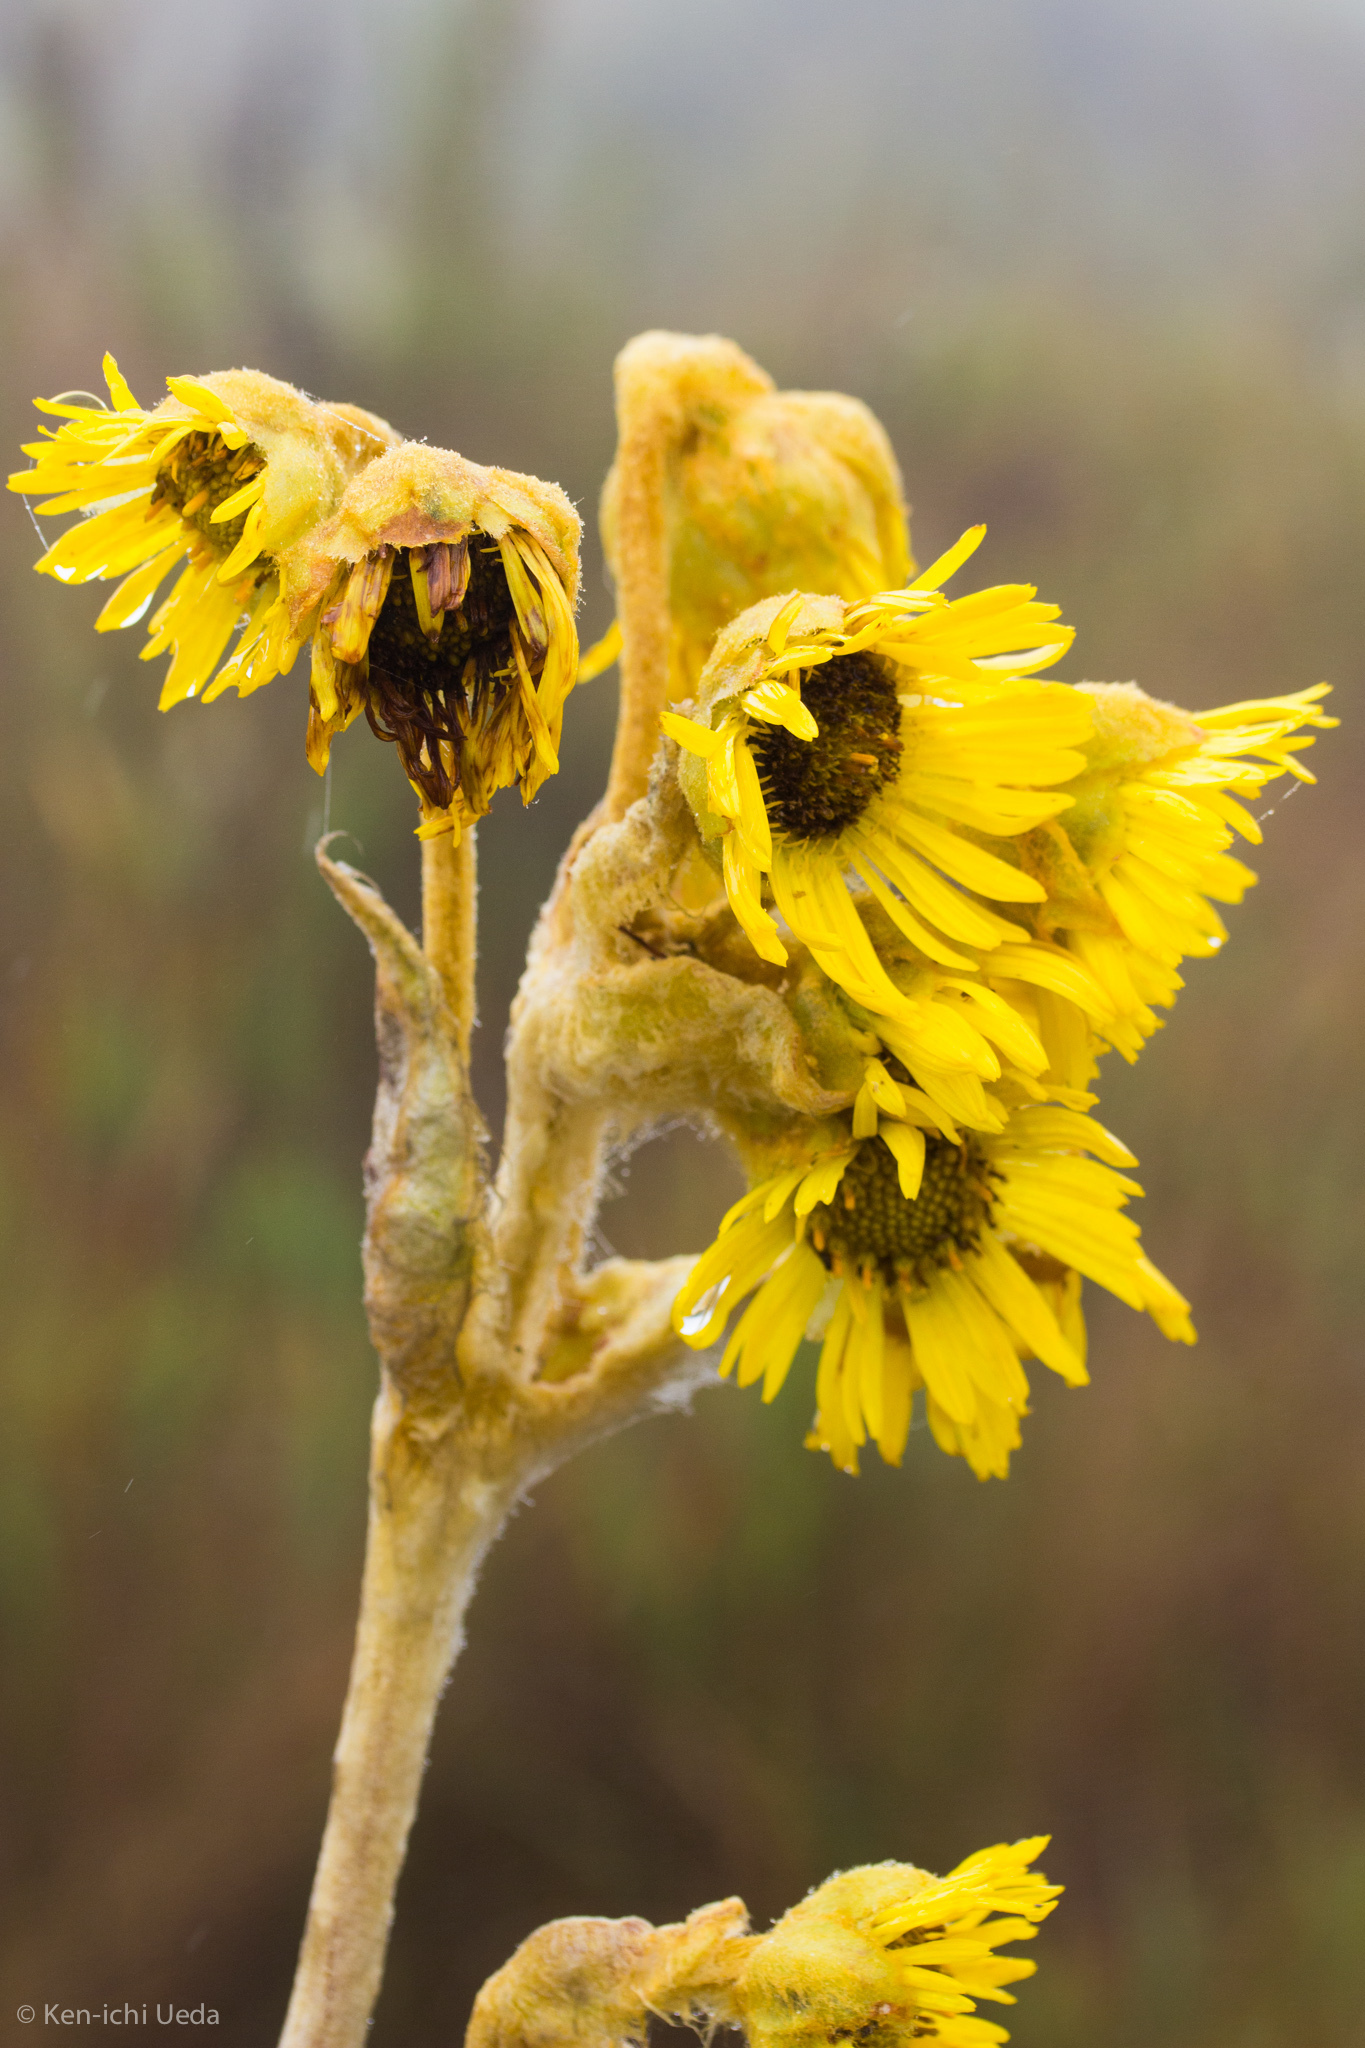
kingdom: Plantae
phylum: Tracheophyta
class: Magnoliopsida
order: Asterales
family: Asteraceae
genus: Espeletia
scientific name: Espeletia grandiflora
